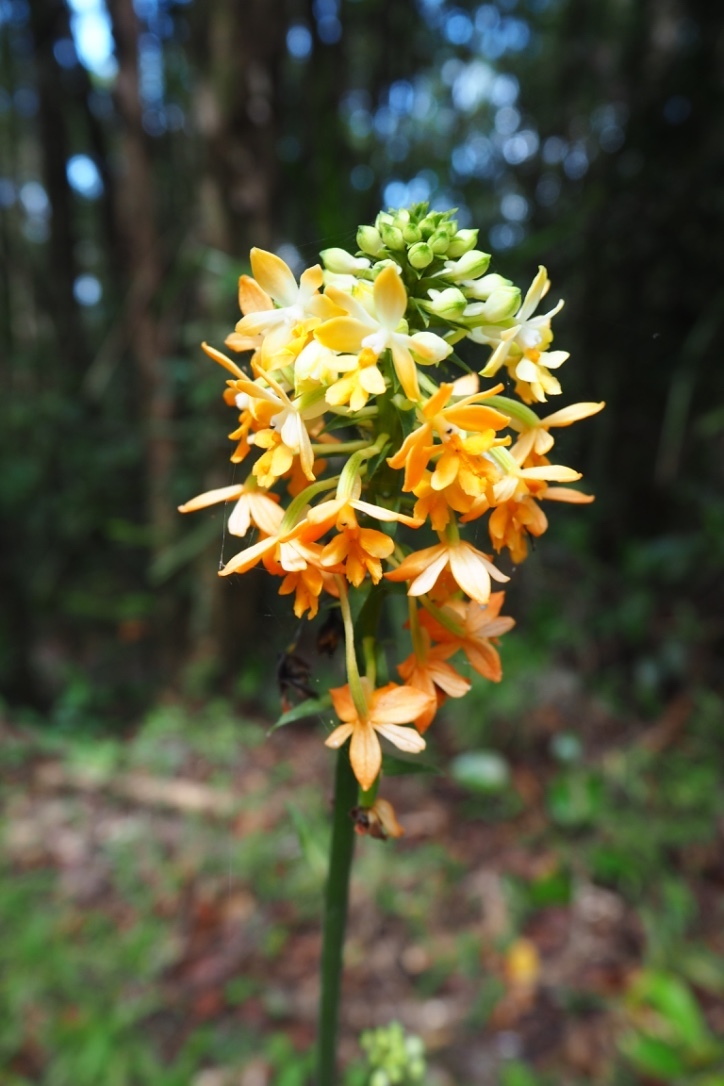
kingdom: Plantae
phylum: Tracheophyta
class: Liliopsida
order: Asparagales
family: Orchidaceae
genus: Calanthe
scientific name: Calanthe kinabaluensis
